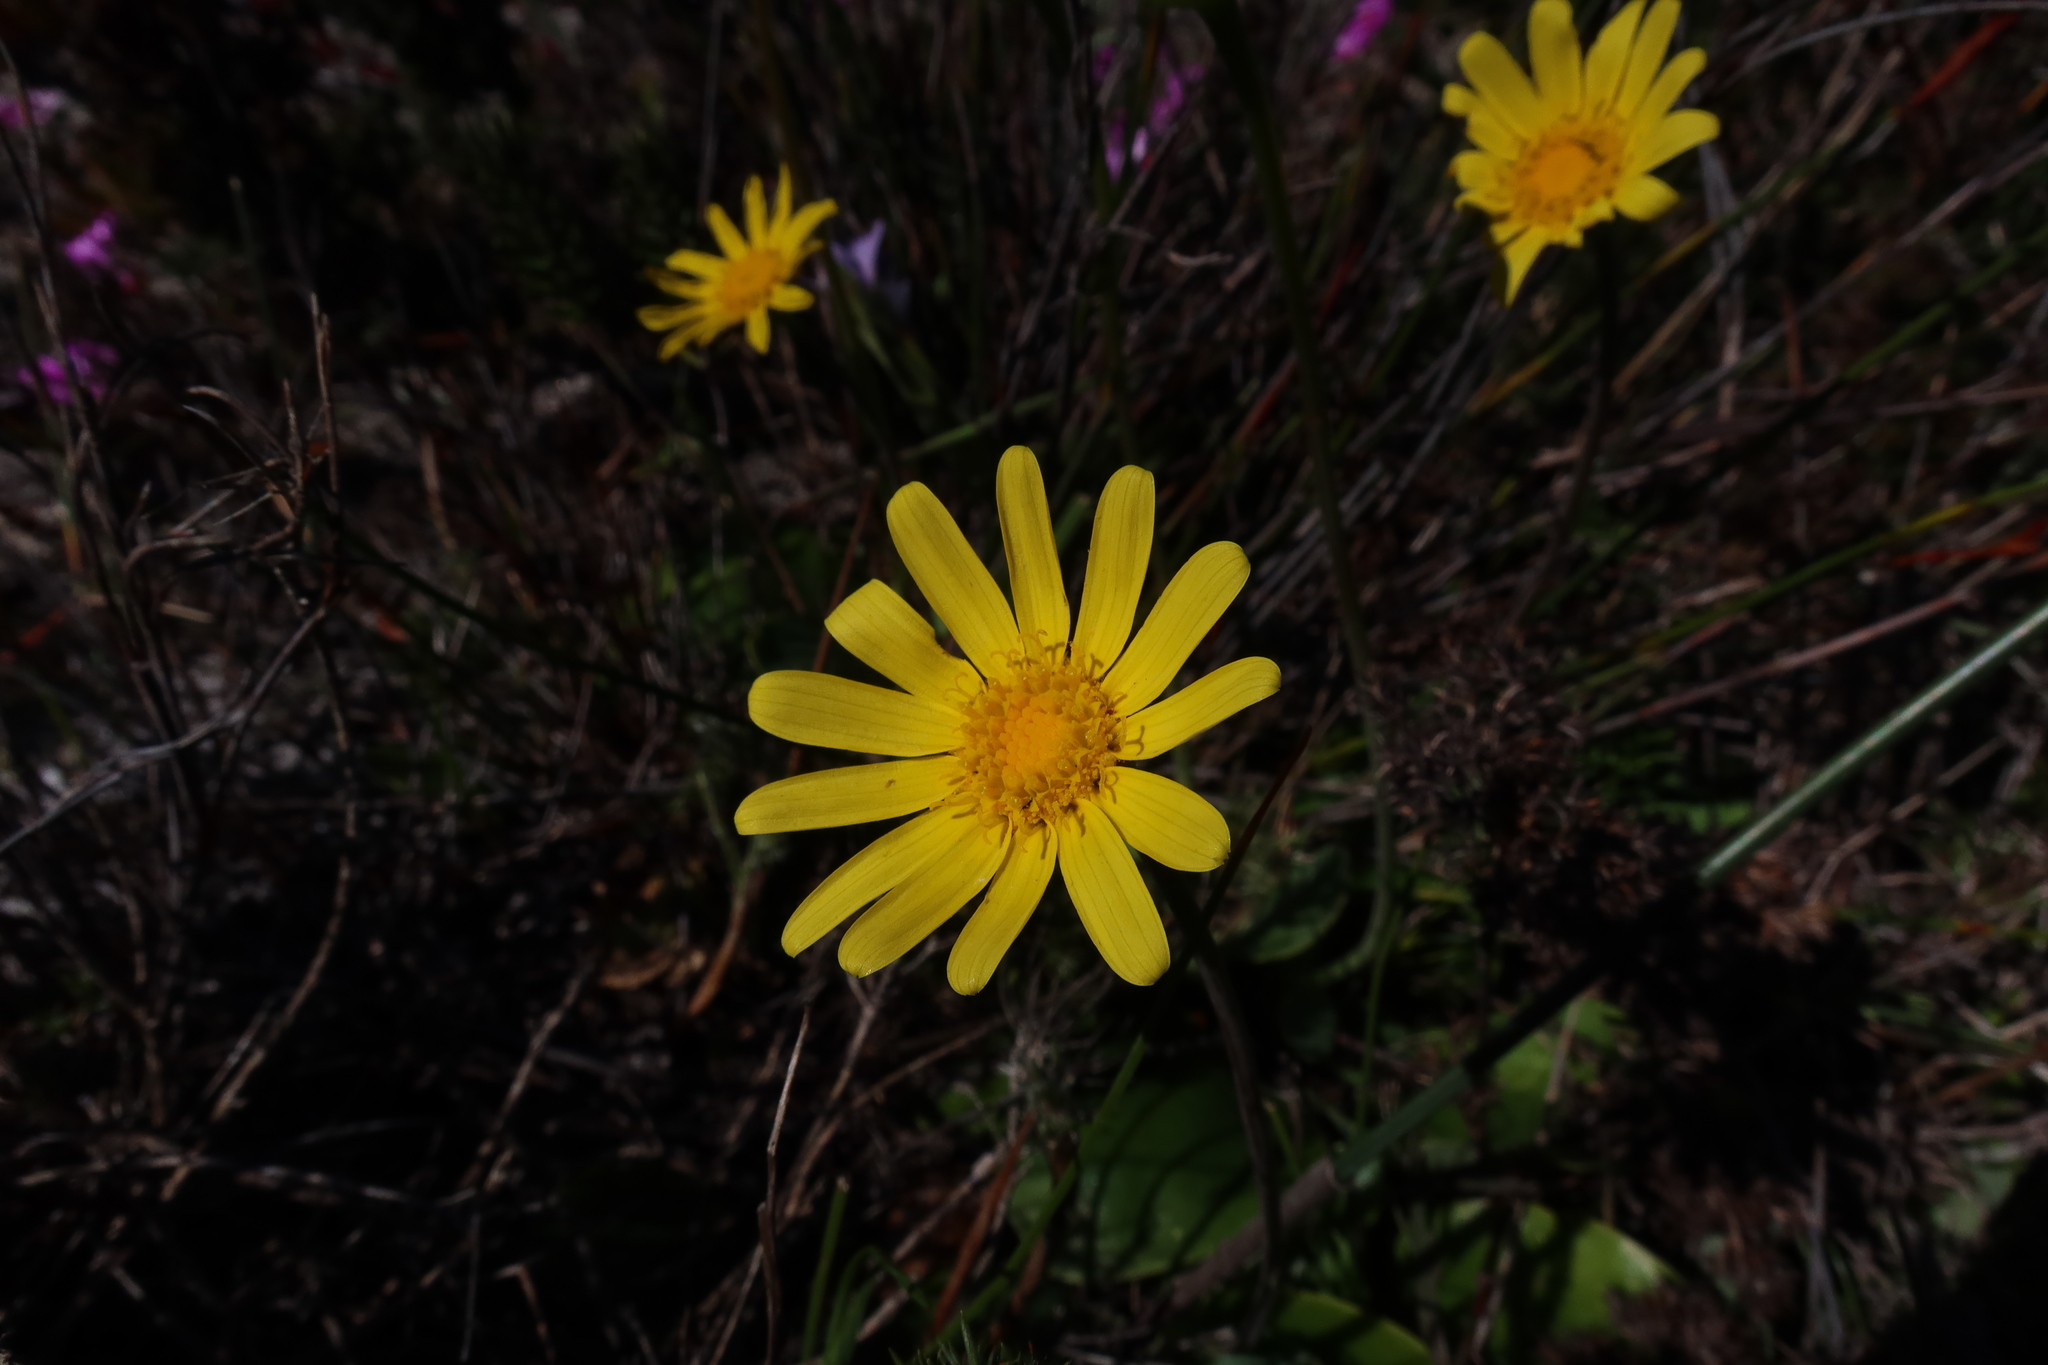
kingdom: Plantae
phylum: Tracheophyta
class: Magnoliopsida
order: Asterales
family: Asteraceae
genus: Othonna
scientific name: Othonna bulbosa
